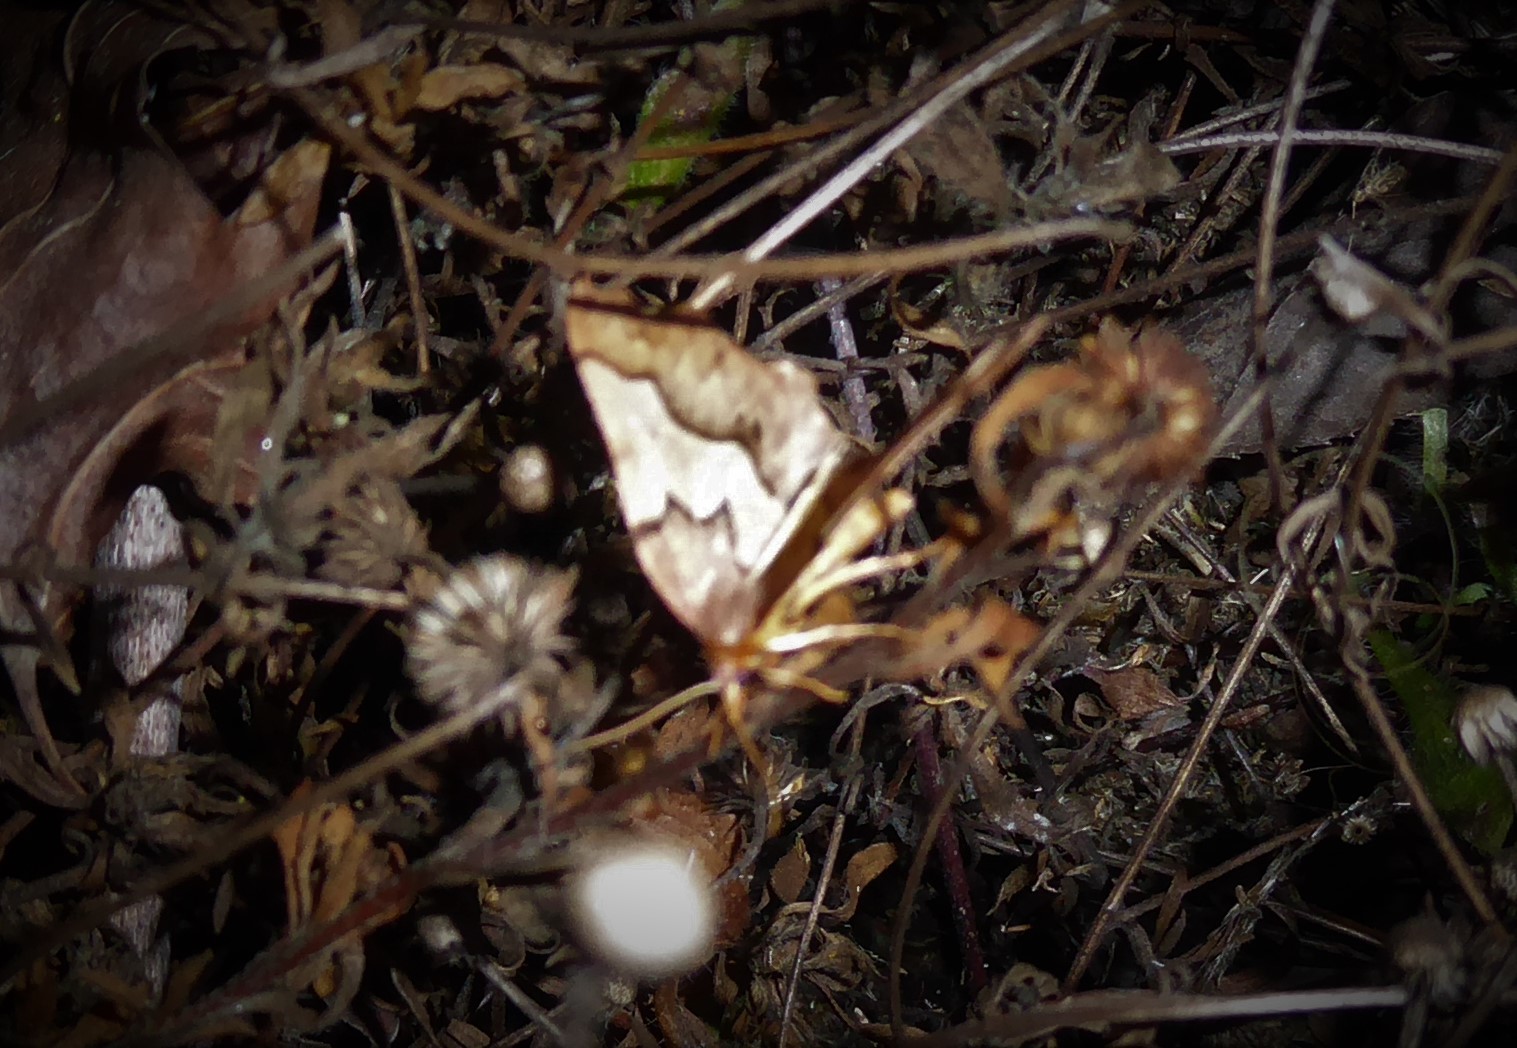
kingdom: Animalia
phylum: Arthropoda
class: Insecta
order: Lepidoptera
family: Geometridae
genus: Ischalis
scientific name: Ischalis fortinata
